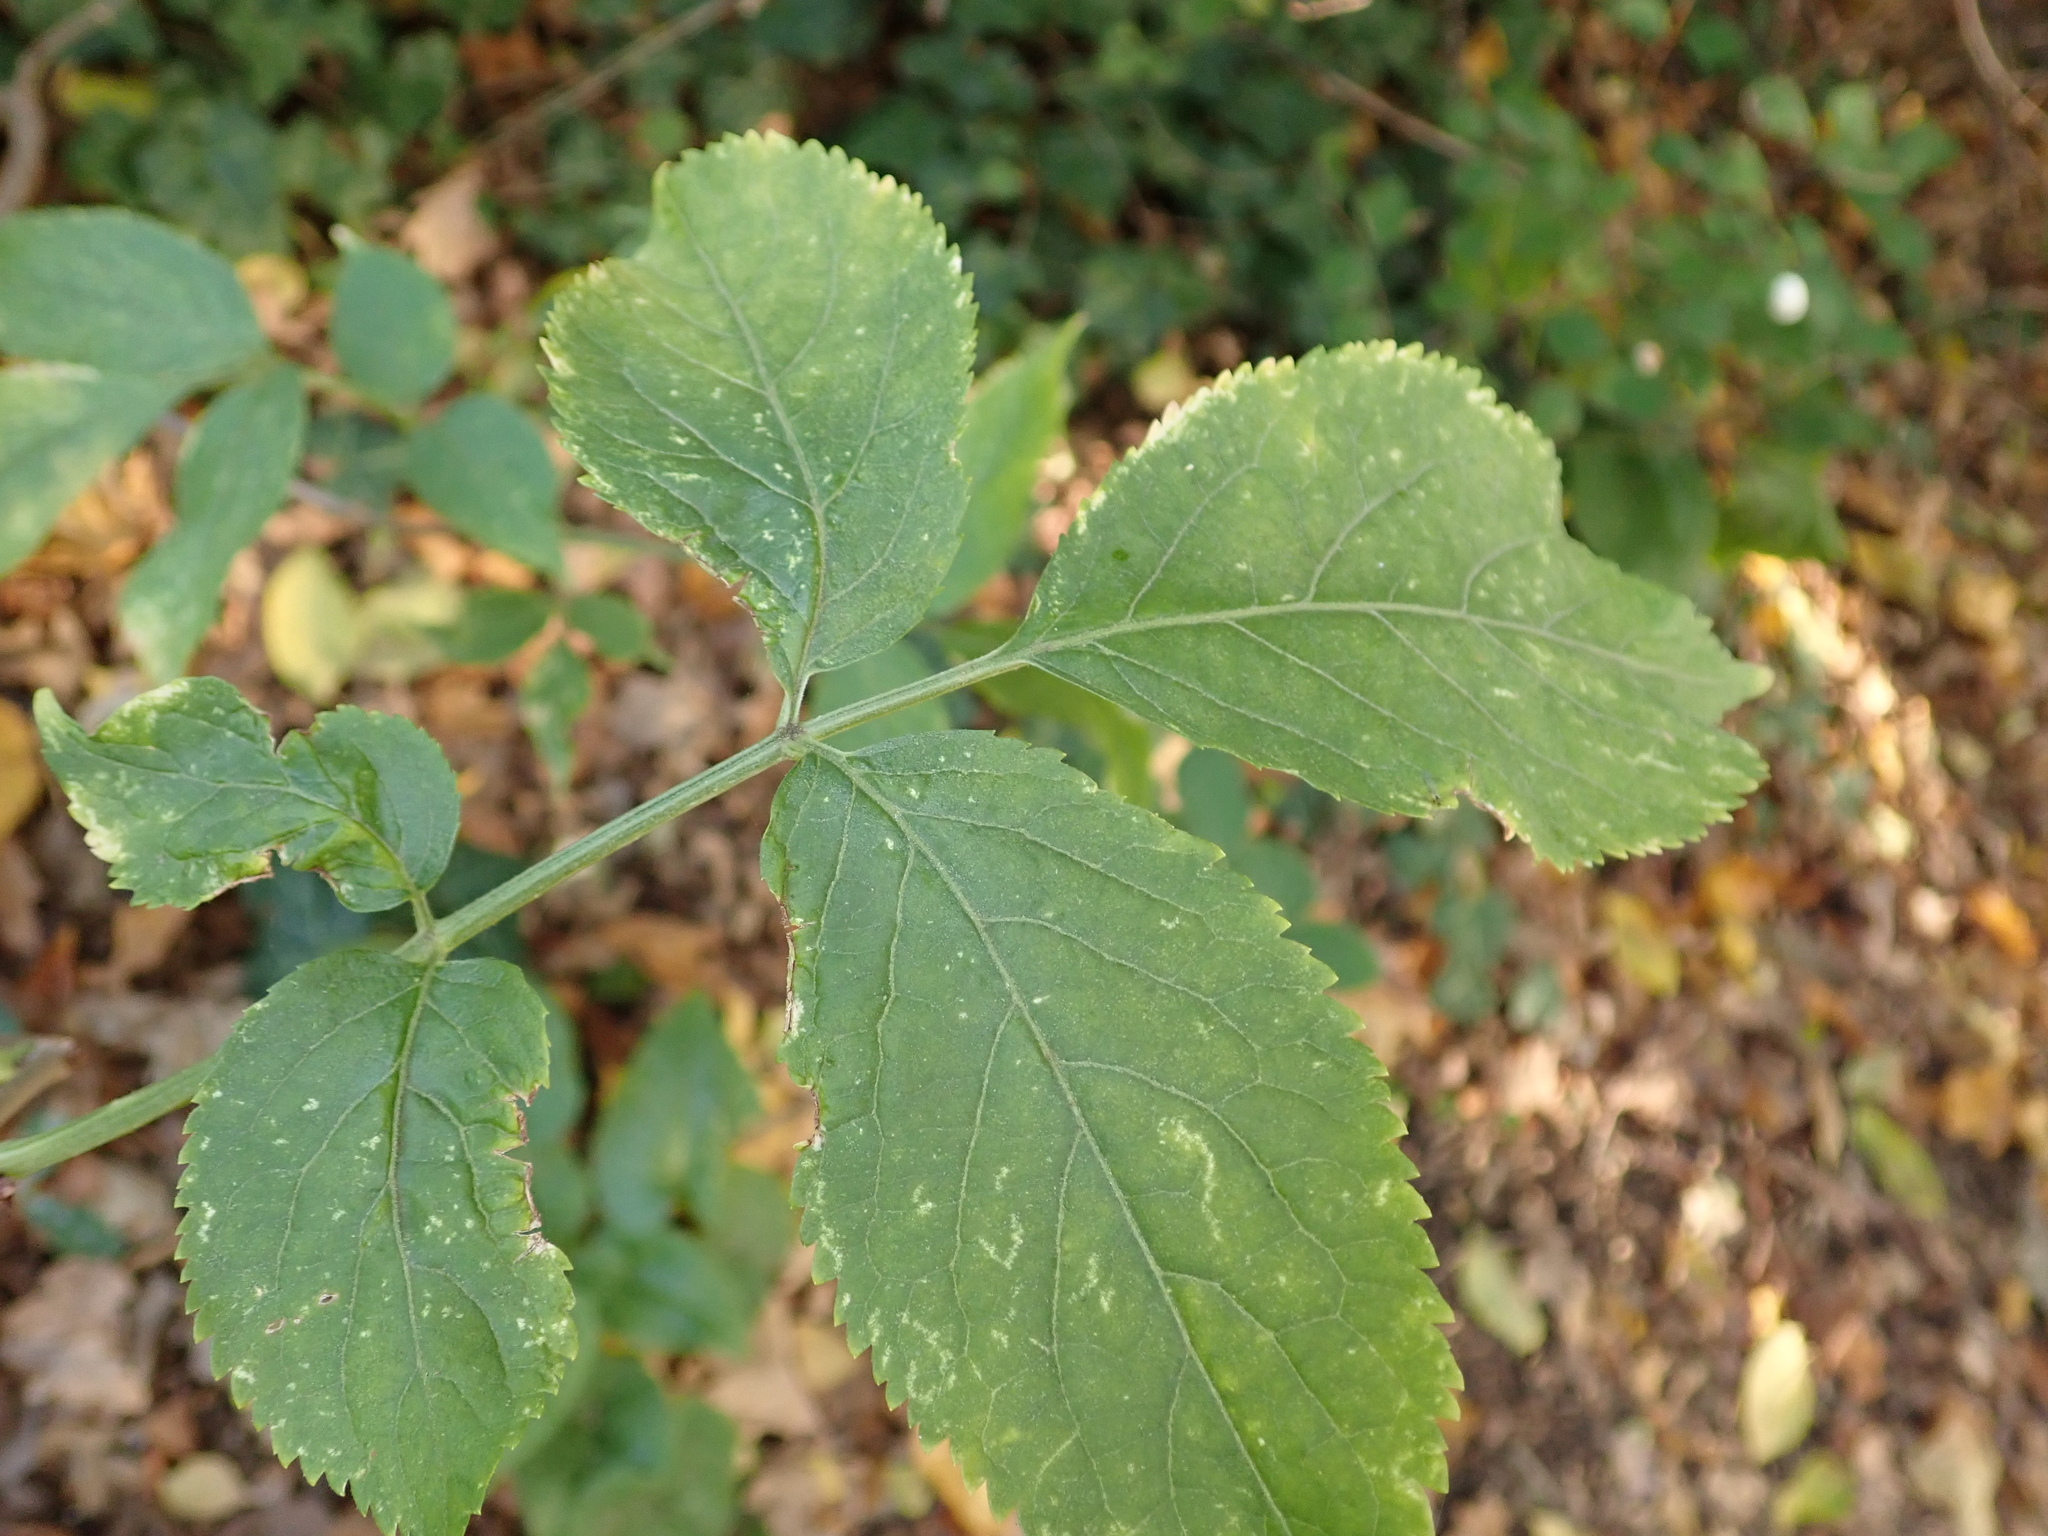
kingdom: Plantae
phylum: Tracheophyta
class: Magnoliopsida
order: Dipsacales
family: Viburnaceae
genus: Sambucus
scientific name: Sambucus nigra
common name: Elder
